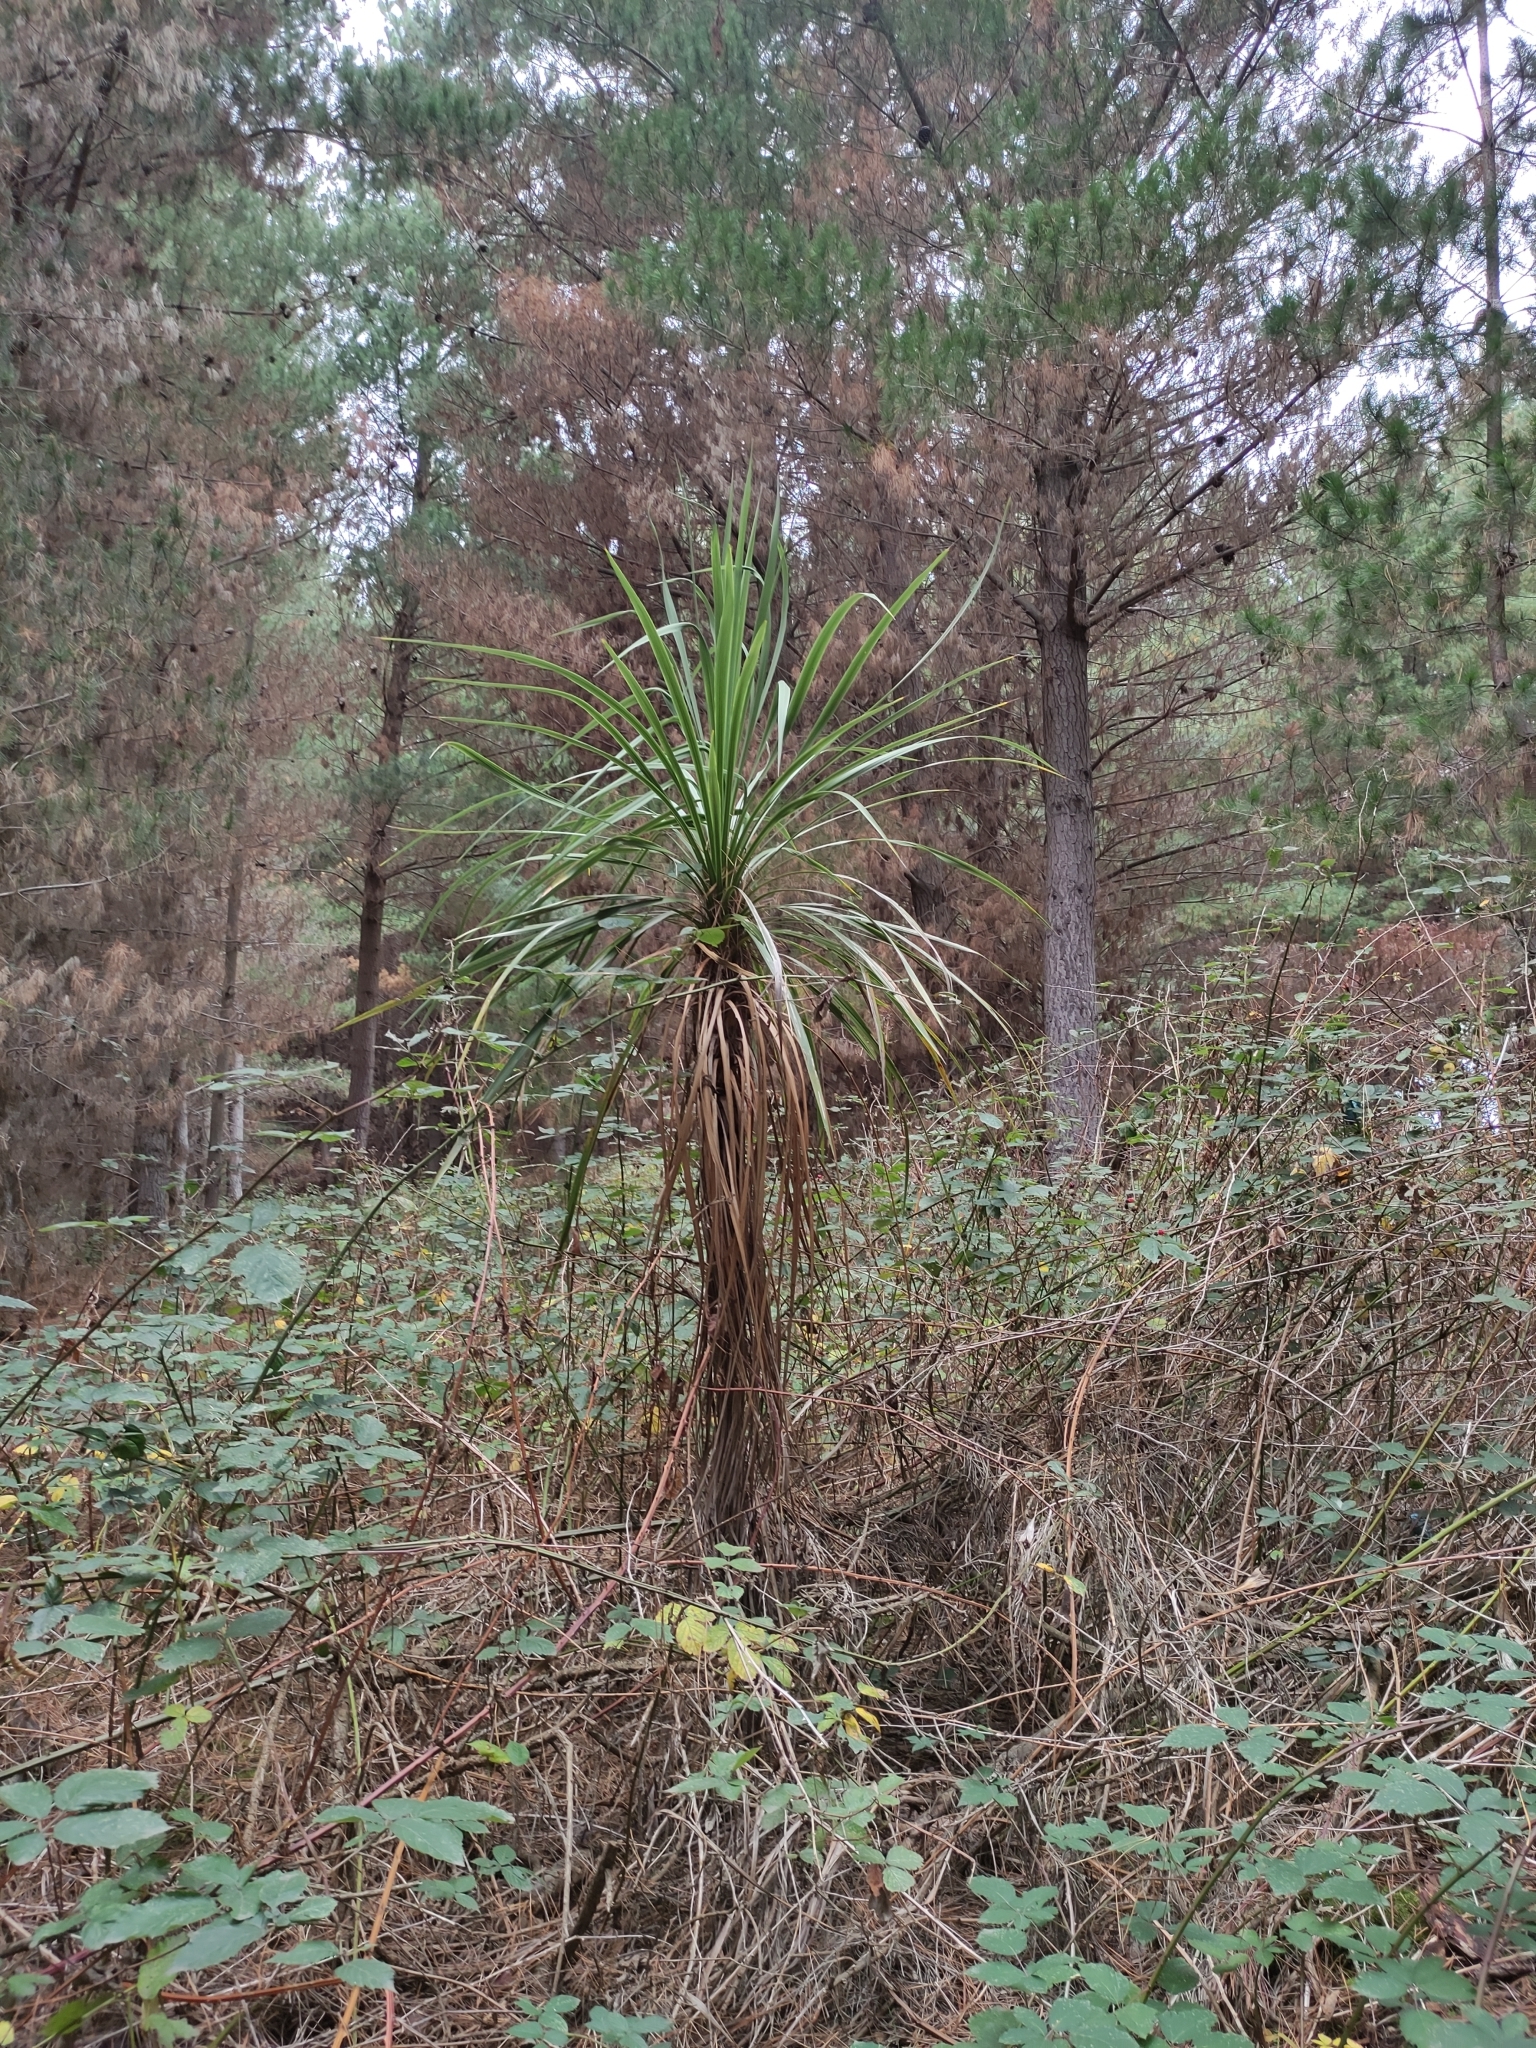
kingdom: Plantae
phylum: Tracheophyta
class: Liliopsida
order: Asparagales
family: Asparagaceae
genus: Cordyline
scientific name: Cordyline australis
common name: Cabbage-palm
